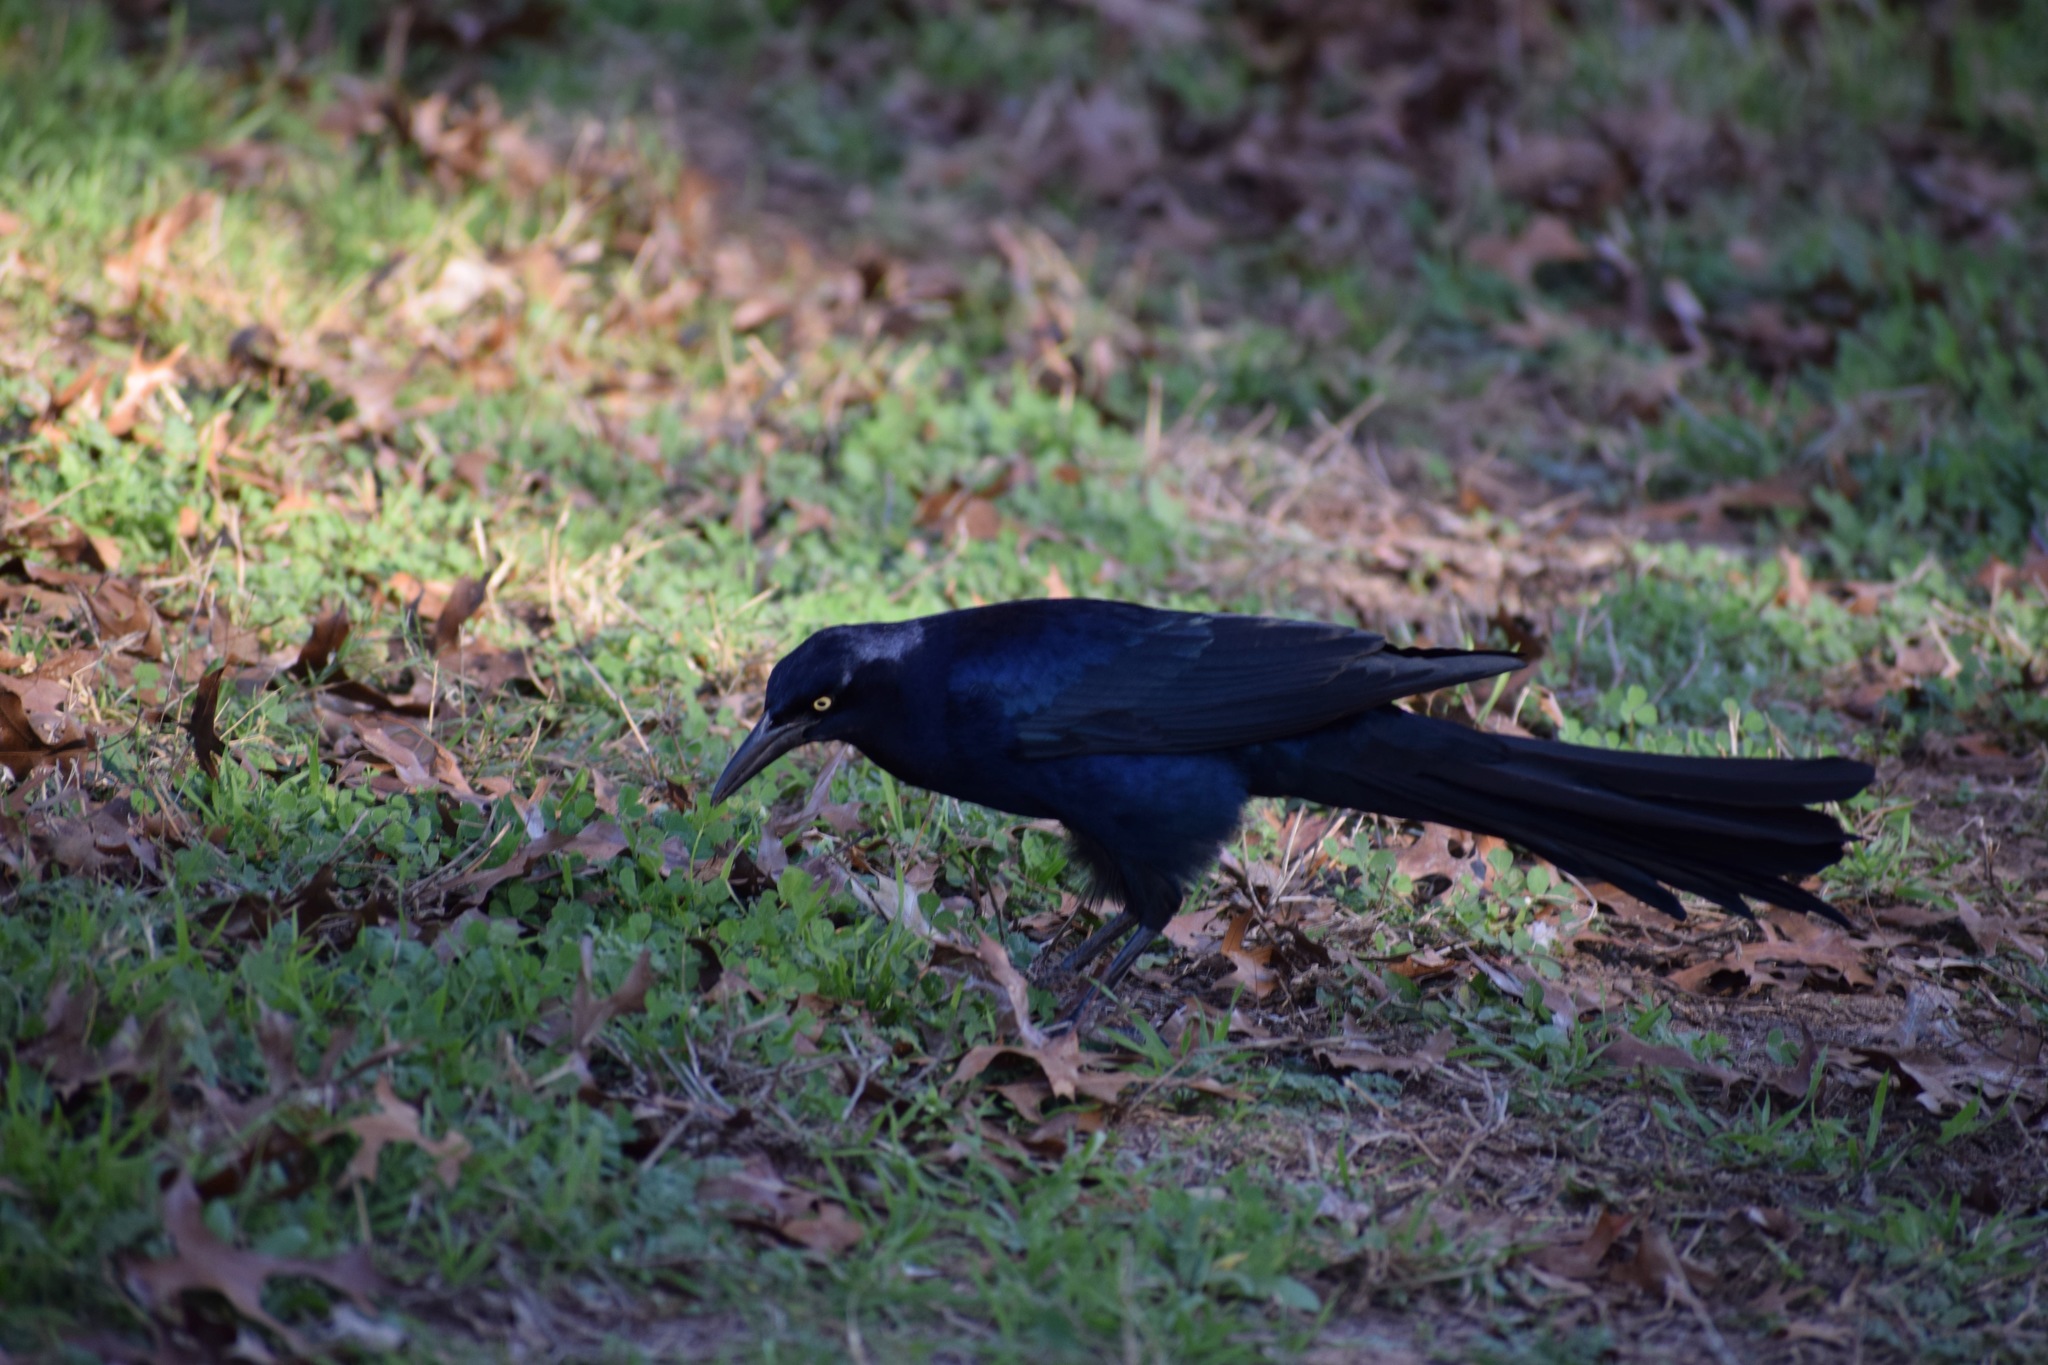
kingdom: Animalia
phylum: Chordata
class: Aves
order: Passeriformes
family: Icteridae
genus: Quiscalus
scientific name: Quiscalus mexicanus
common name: Great-tailed grackle
